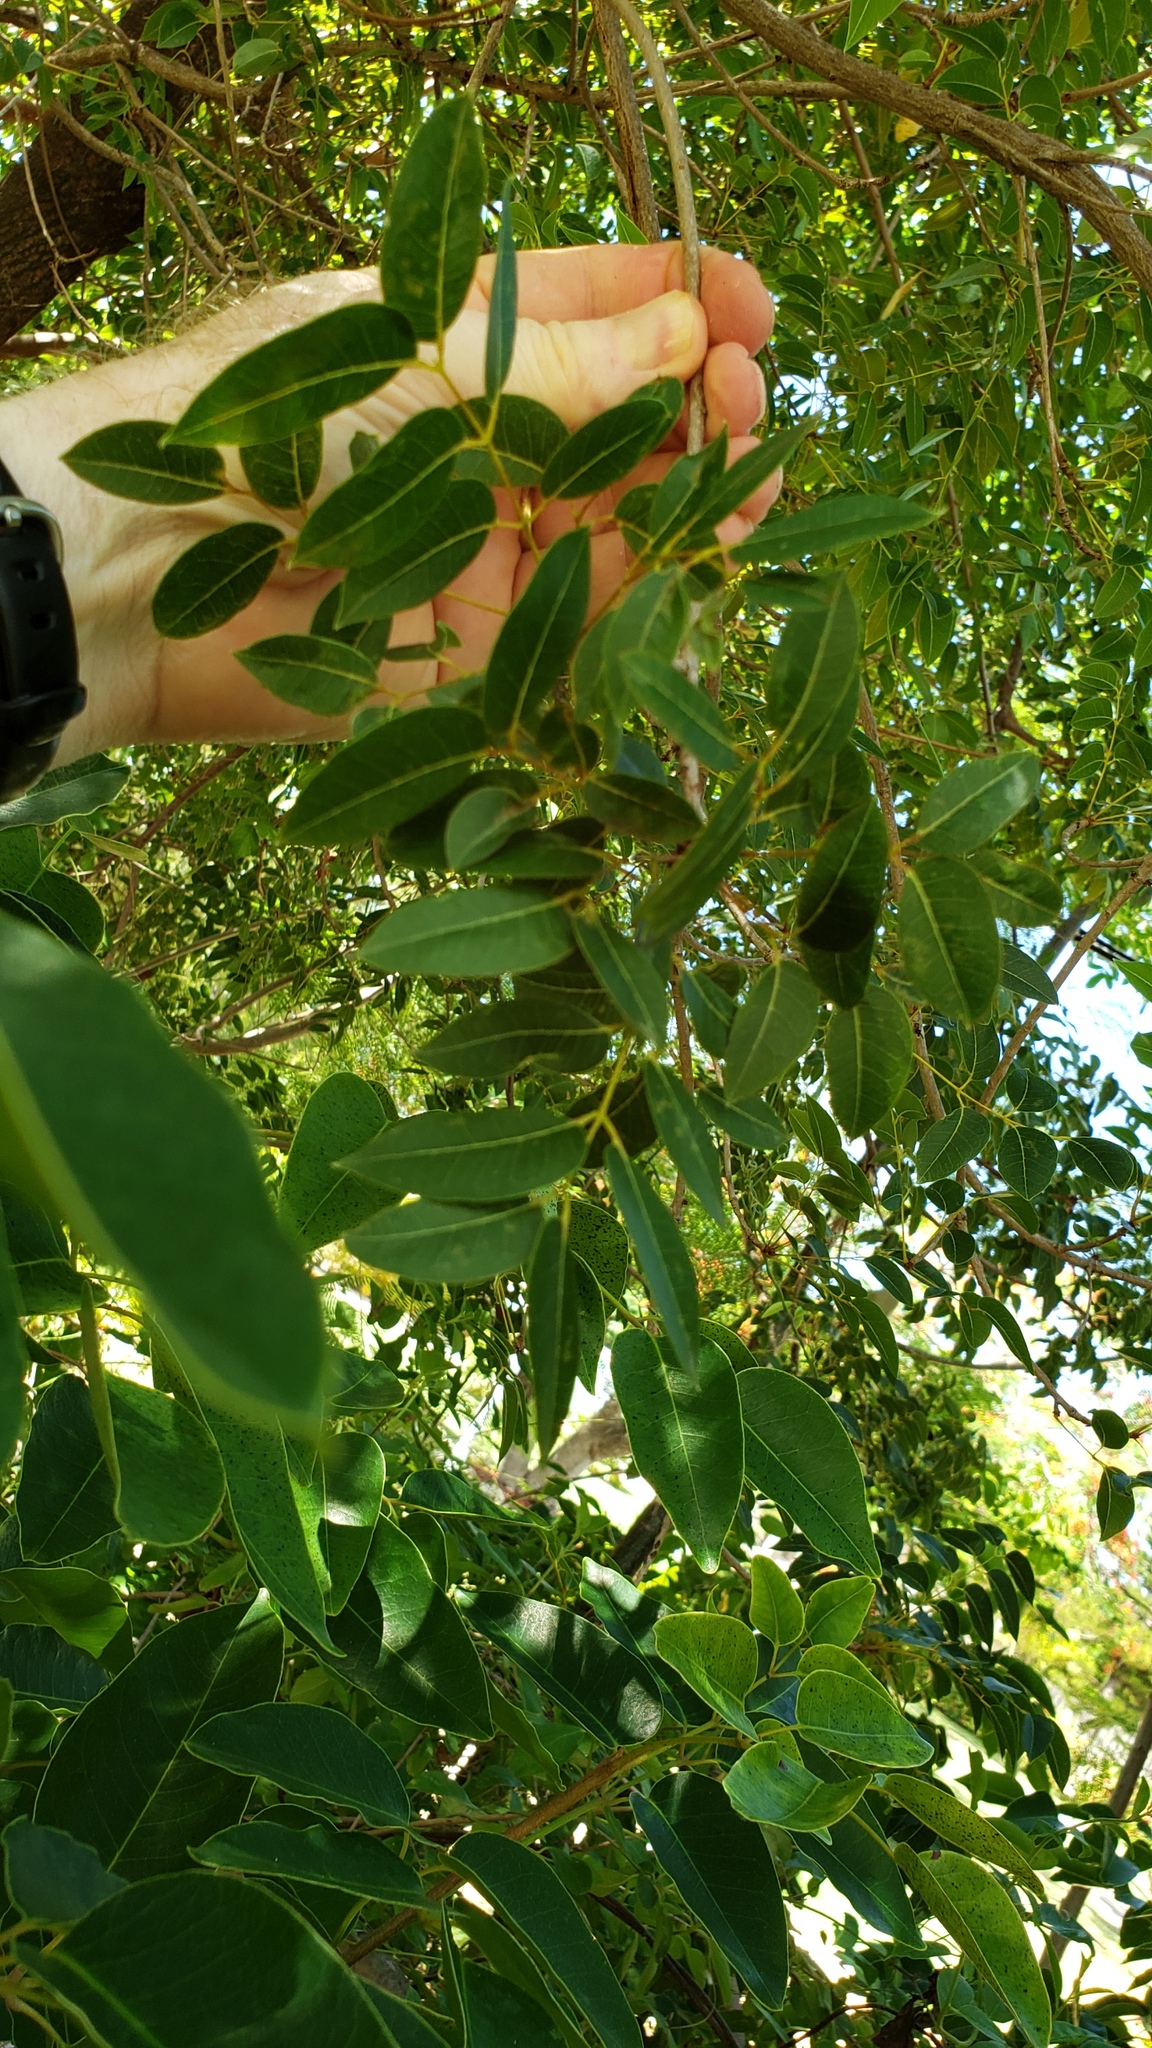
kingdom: Plantae
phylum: Tracheophyta
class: Magnoliopsida
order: Sapindales
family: Meliaceae
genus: Swietenia
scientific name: Swietenia mahagoni
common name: West indian mahogany
